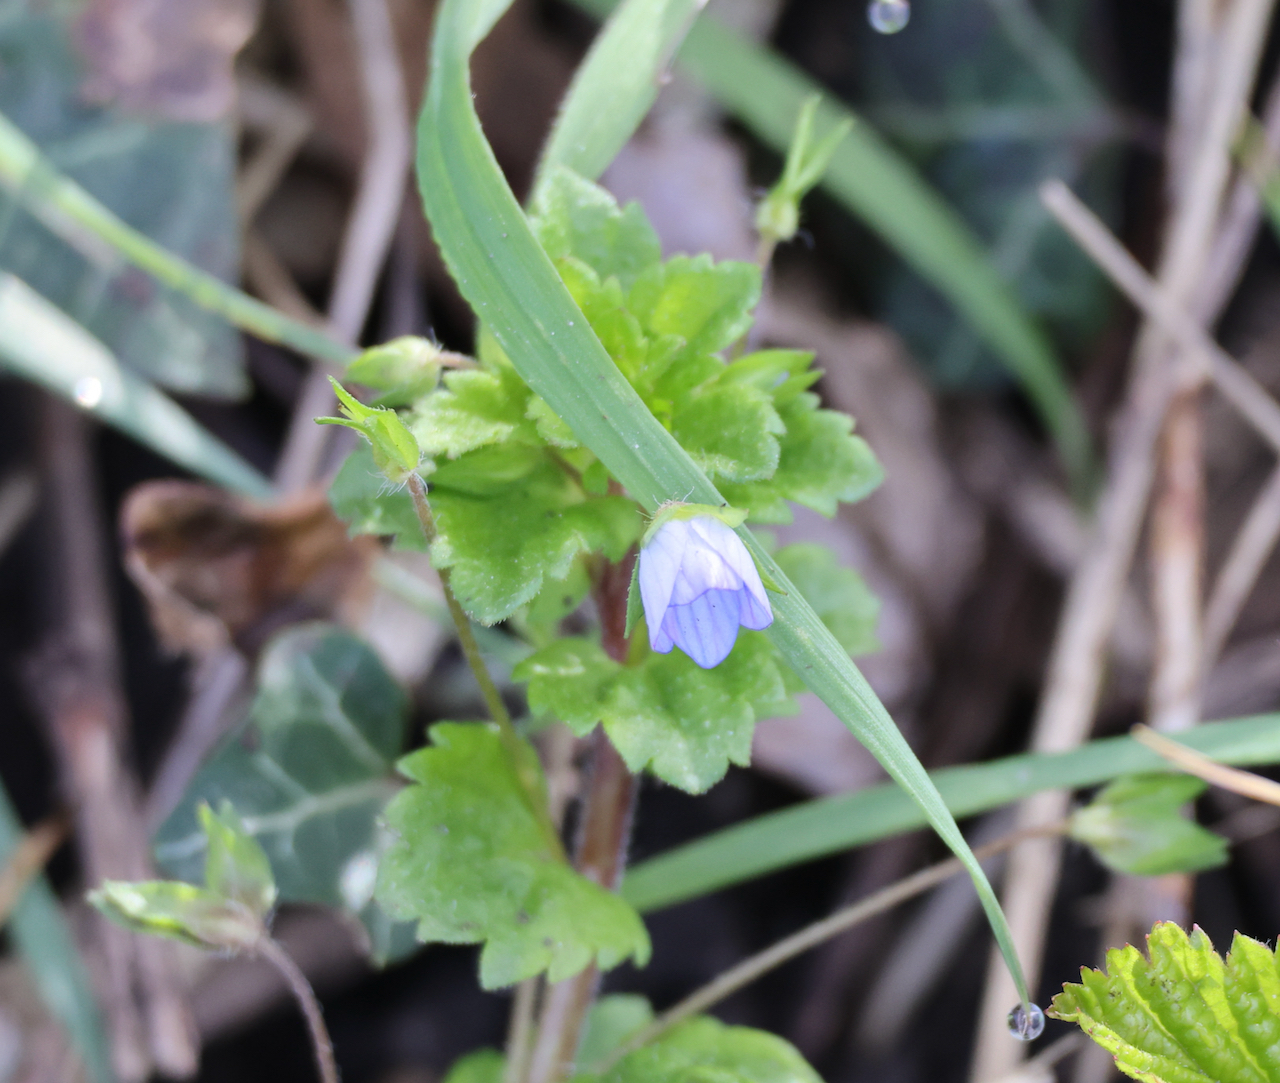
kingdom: Plantae
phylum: Tracheophyta
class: Magnoliopsida
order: Lamiales
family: Plantaginaceae
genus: Veronica
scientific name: Veronica persica
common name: Common field-speedwell
